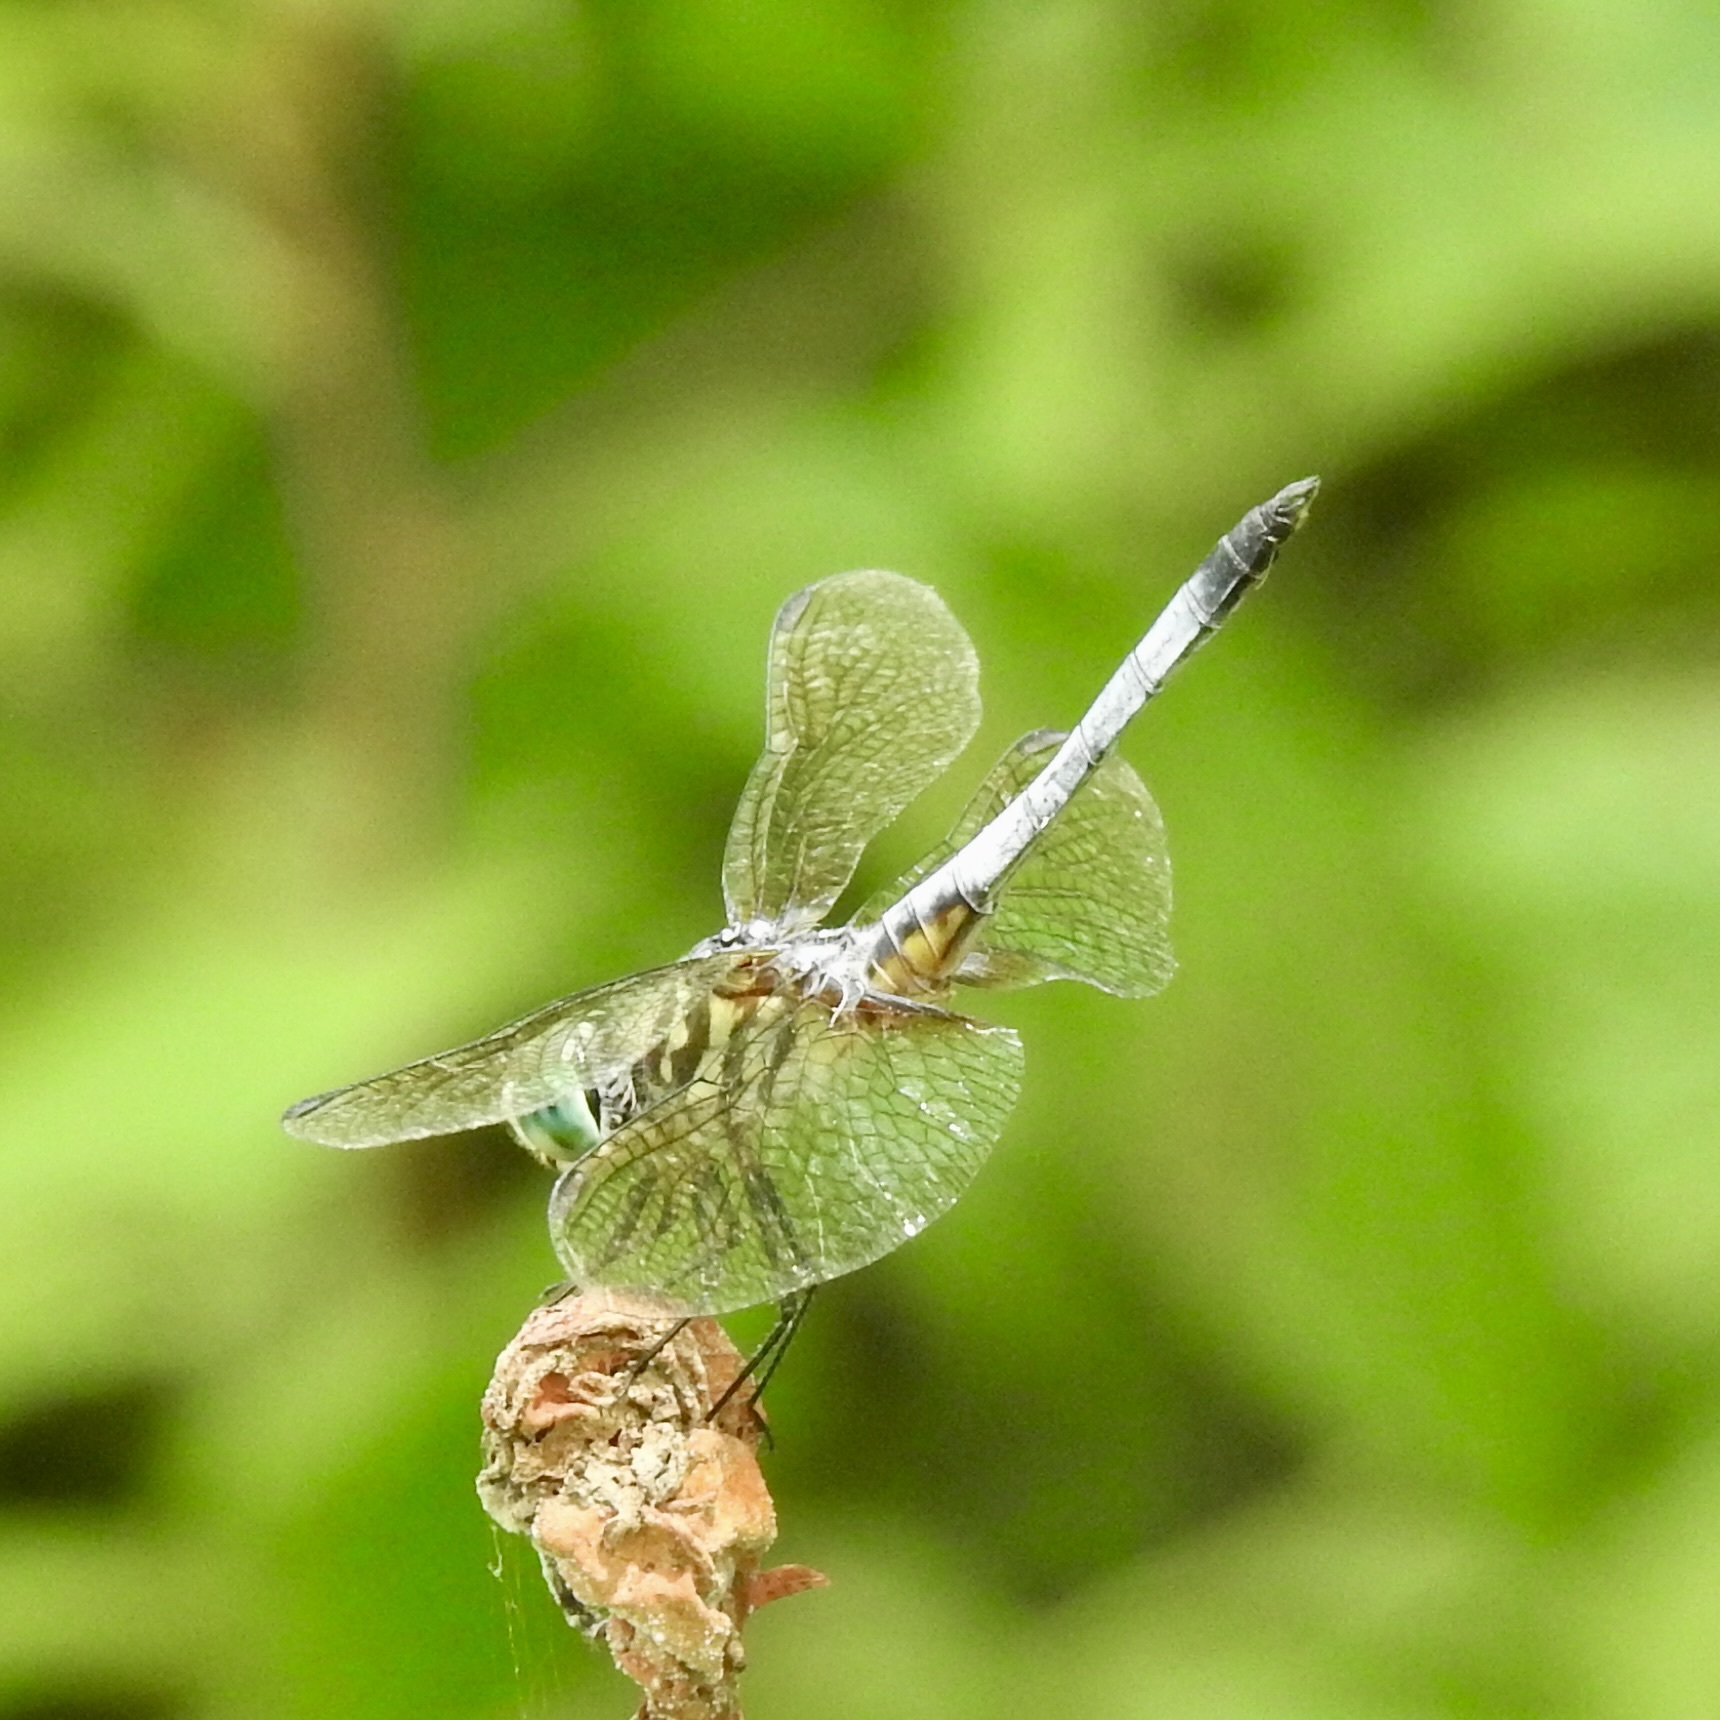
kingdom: Animalia
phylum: Arthropoda
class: Insecta
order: Odonata
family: Libellulidae
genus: Pachydiplax
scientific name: Pachydiplax longipennis
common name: Blue dasher
